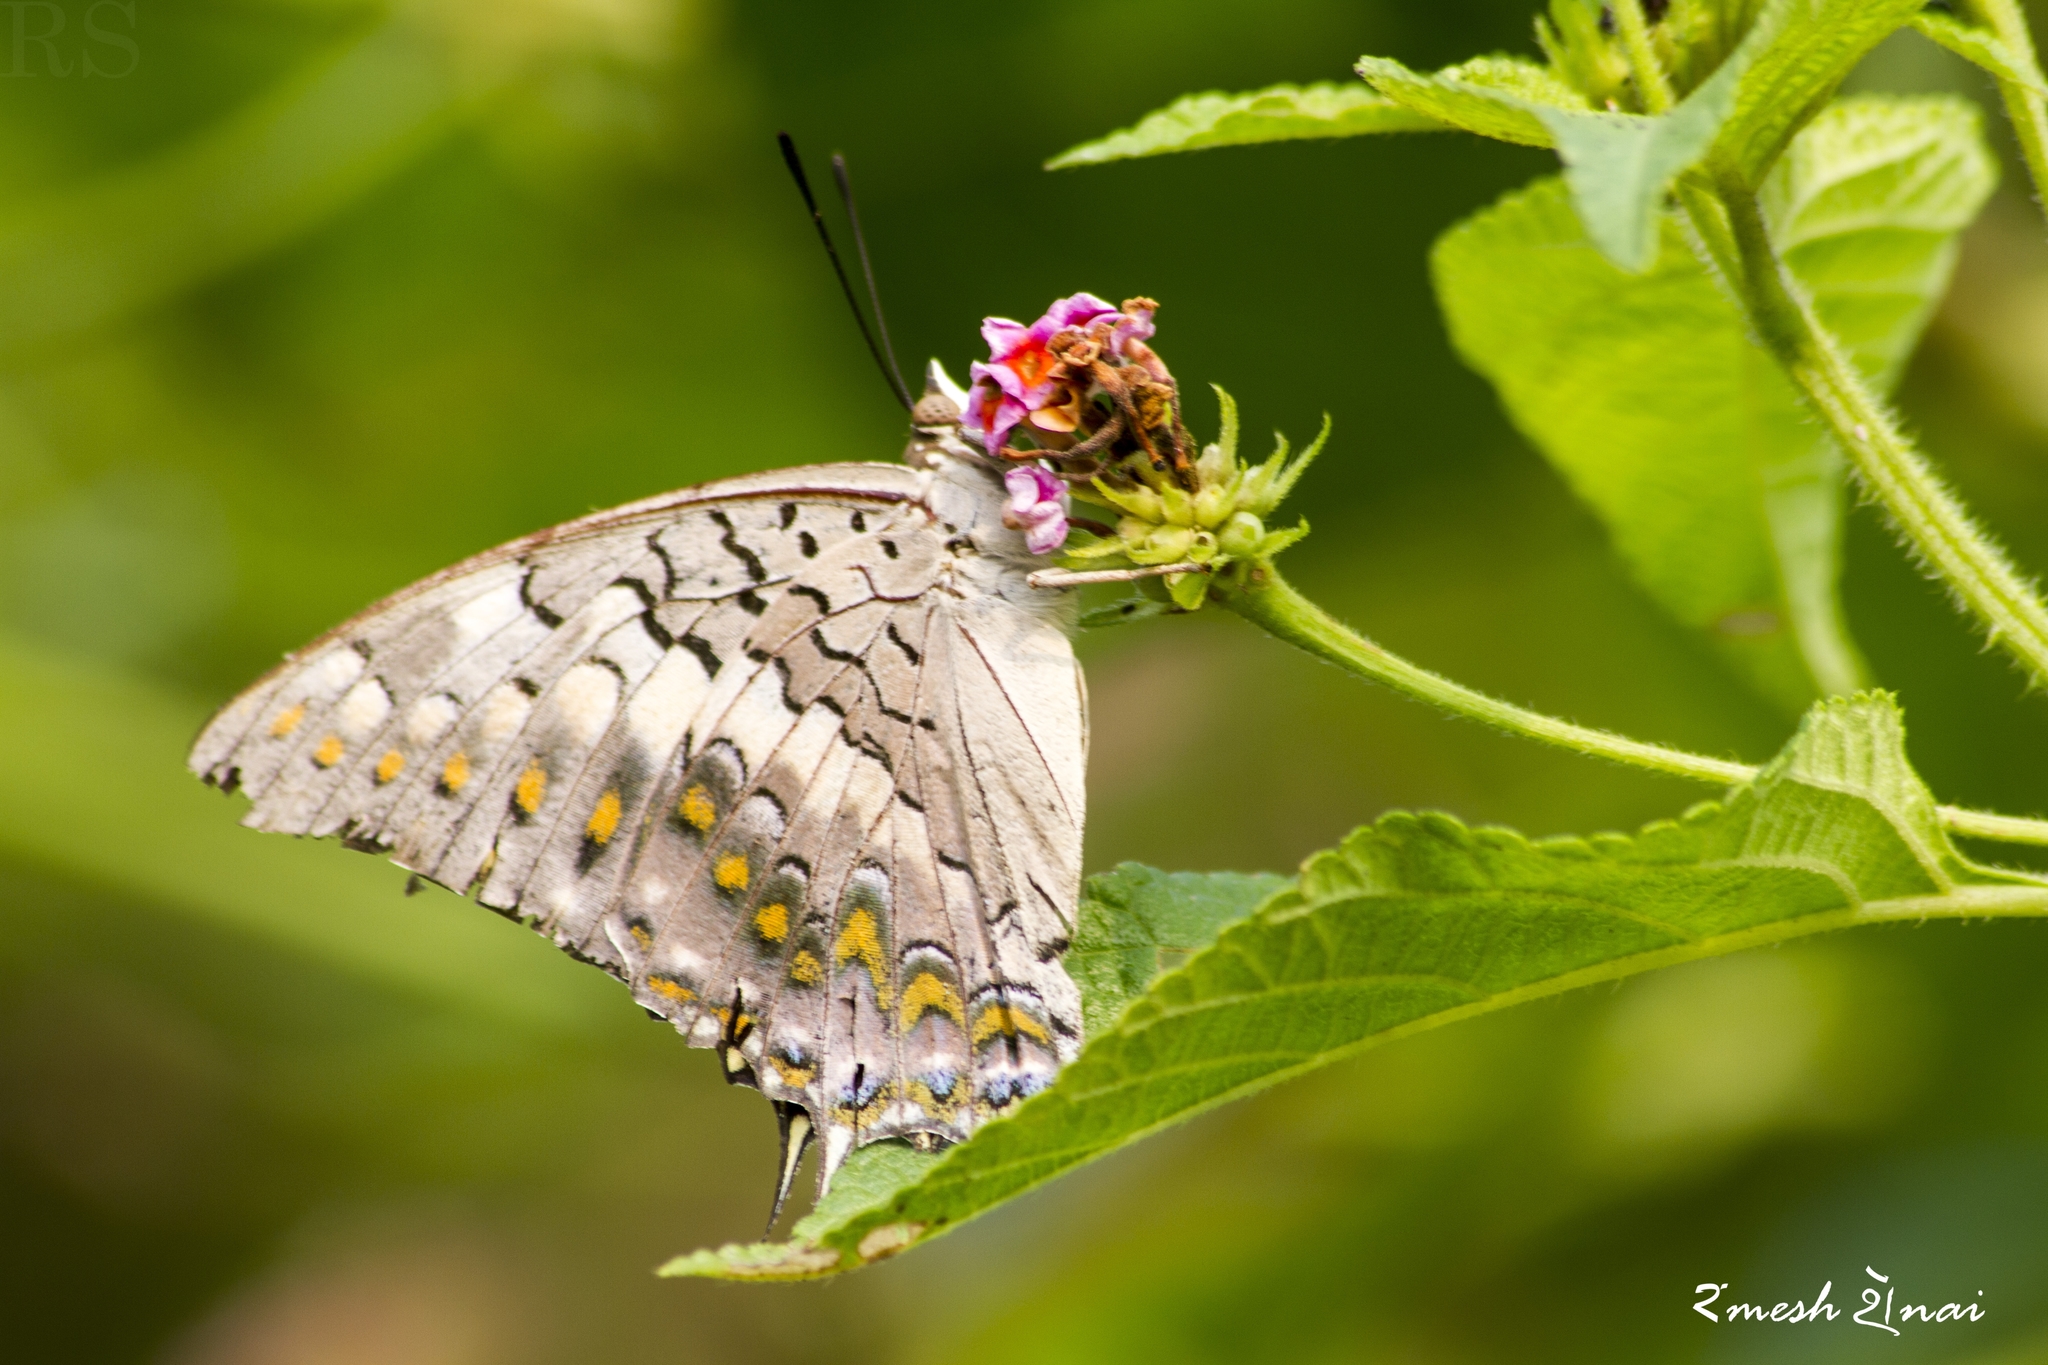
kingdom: Animalia
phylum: Arthropoda
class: Insecta
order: Lepidoptera
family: Nymphalidae
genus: Charaxes
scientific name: Charaxes solon
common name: Black rajah
